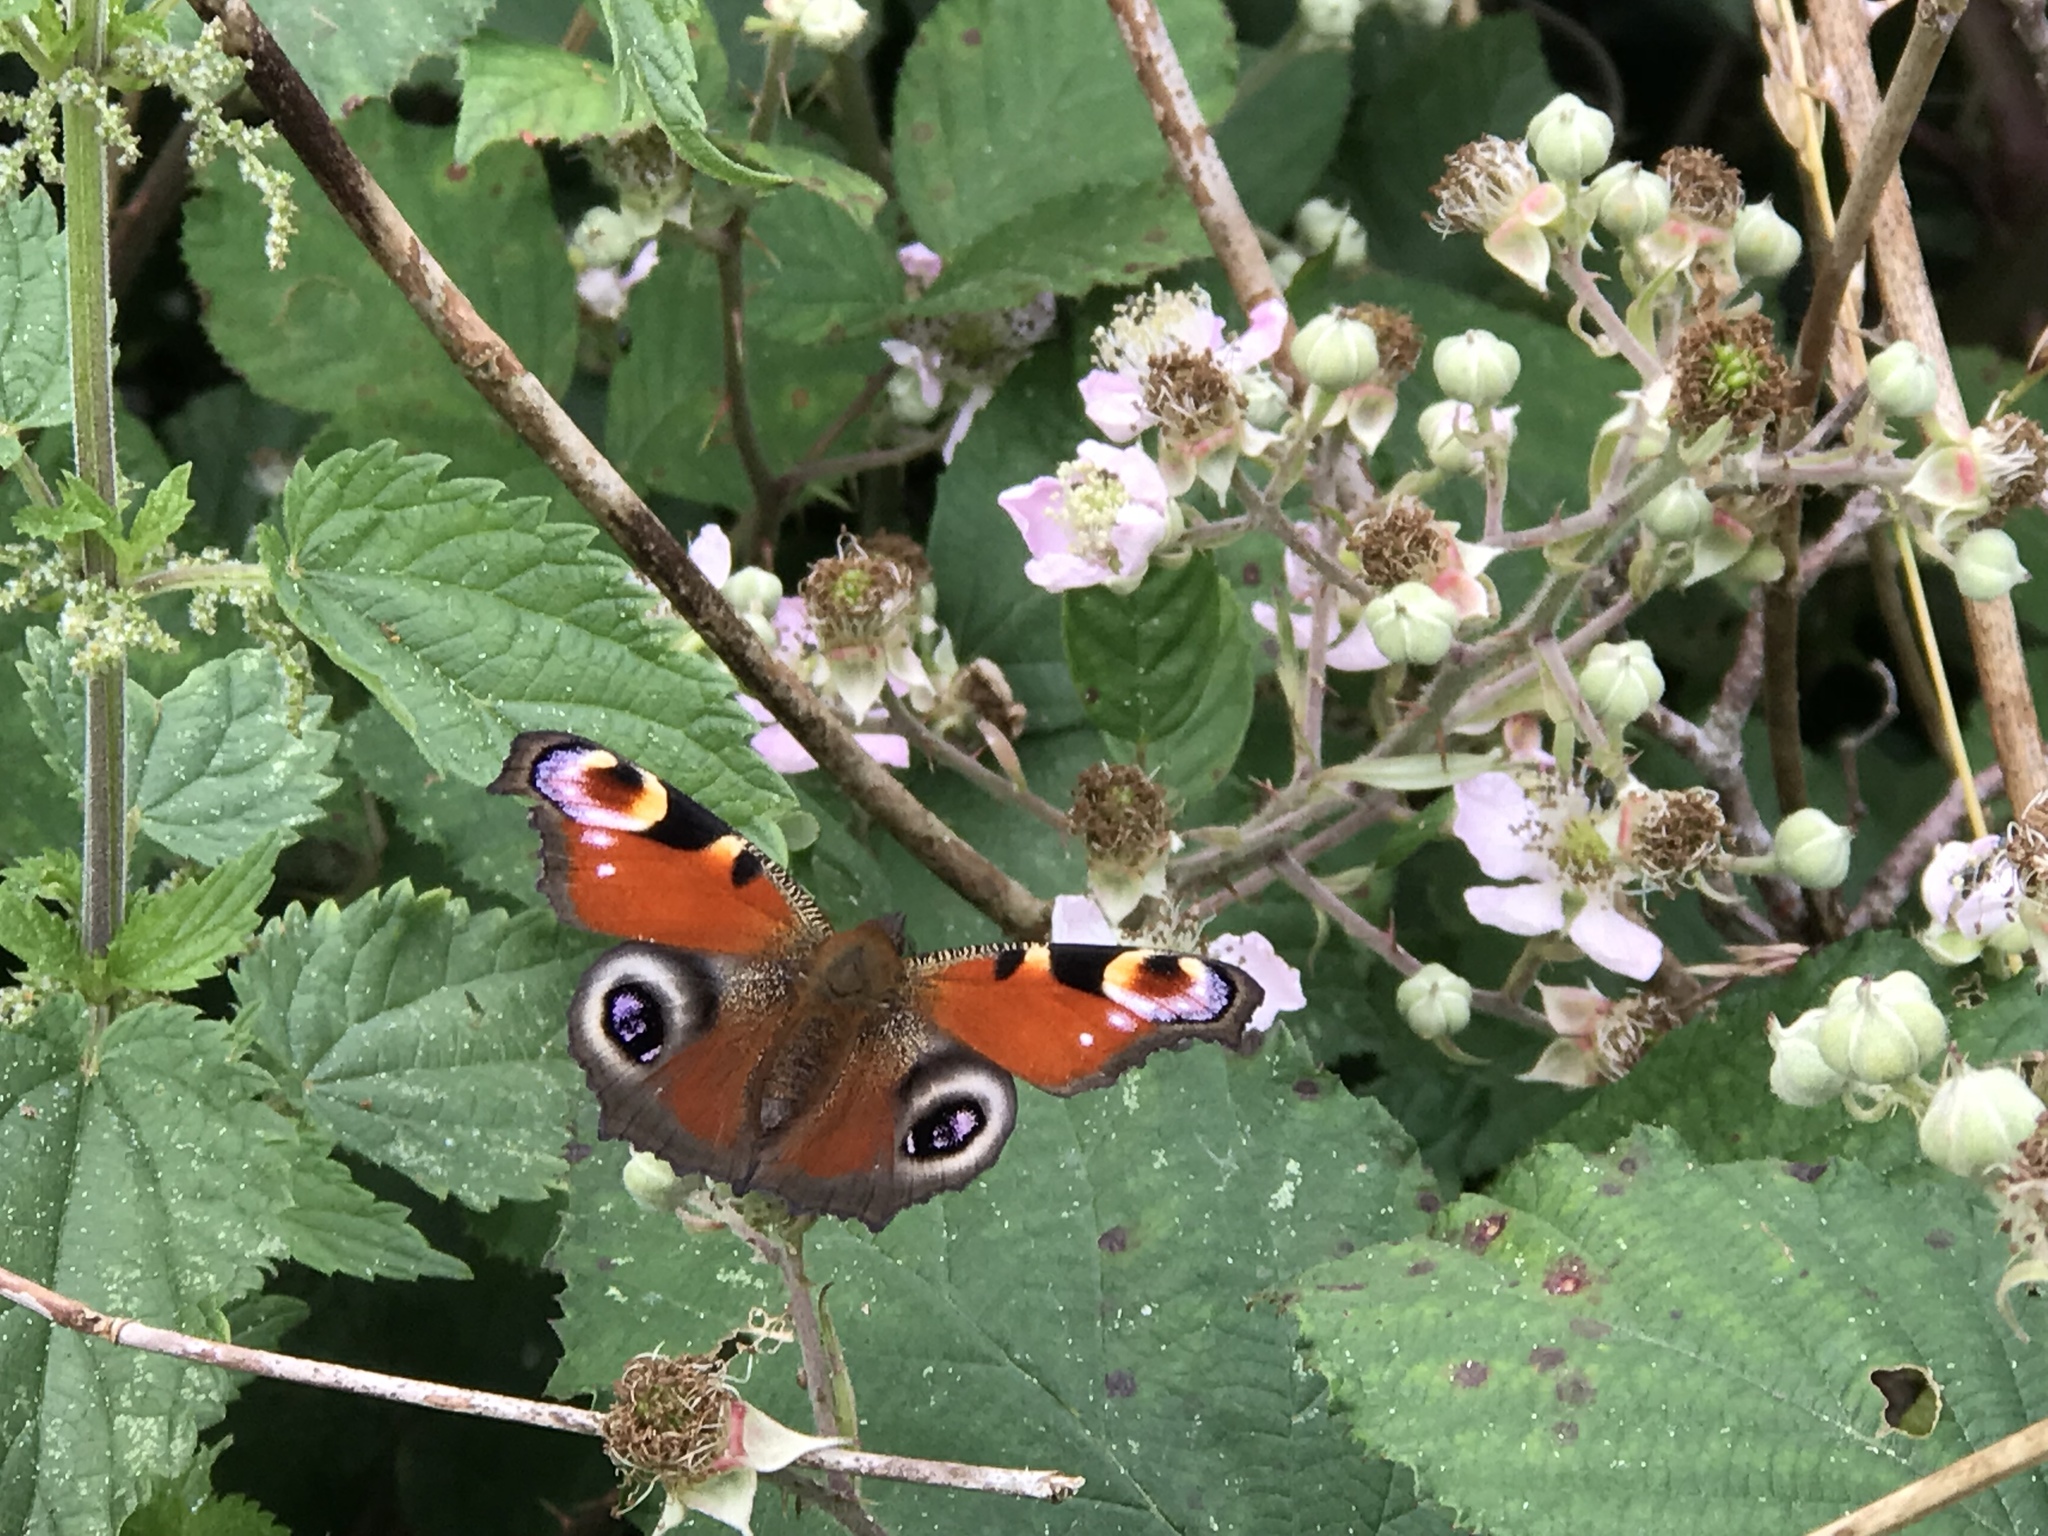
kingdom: Animalia
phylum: Arthropoda
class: Insecta
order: Lepidoptera
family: Nymphalidae
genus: Aglais
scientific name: Aglais io
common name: Peacock
